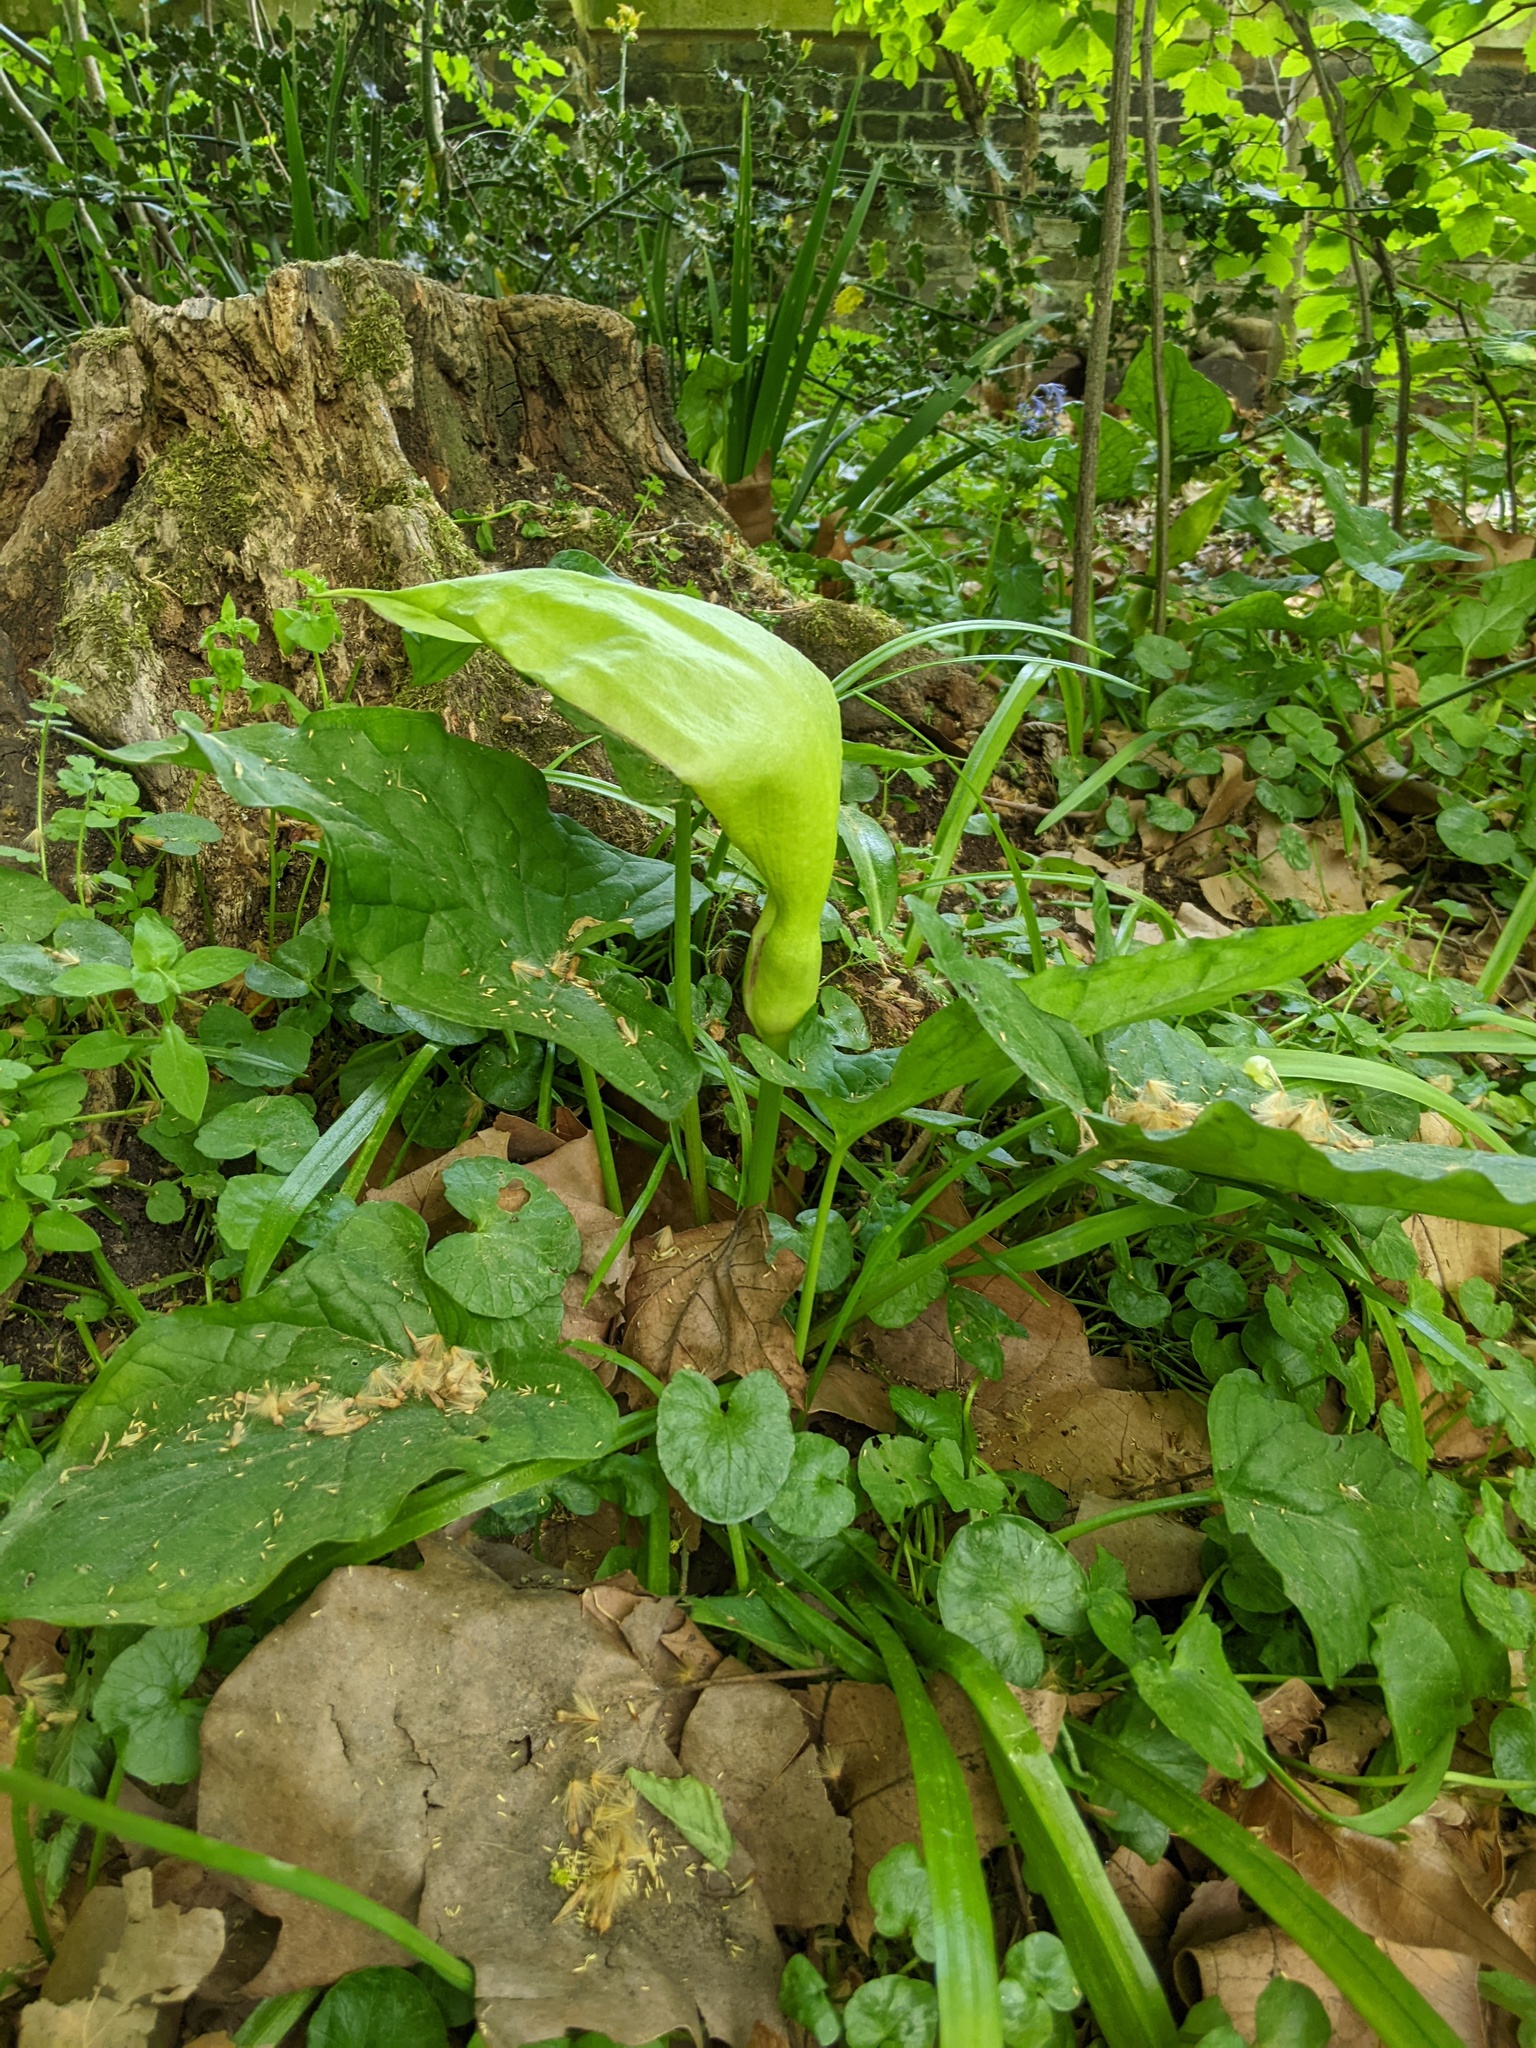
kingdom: Plantae
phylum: Tracheophyta
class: Liliopsida
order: Alismatales
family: Araceae
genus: Arum
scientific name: Arum maculatum
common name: Lords-and-ladies
